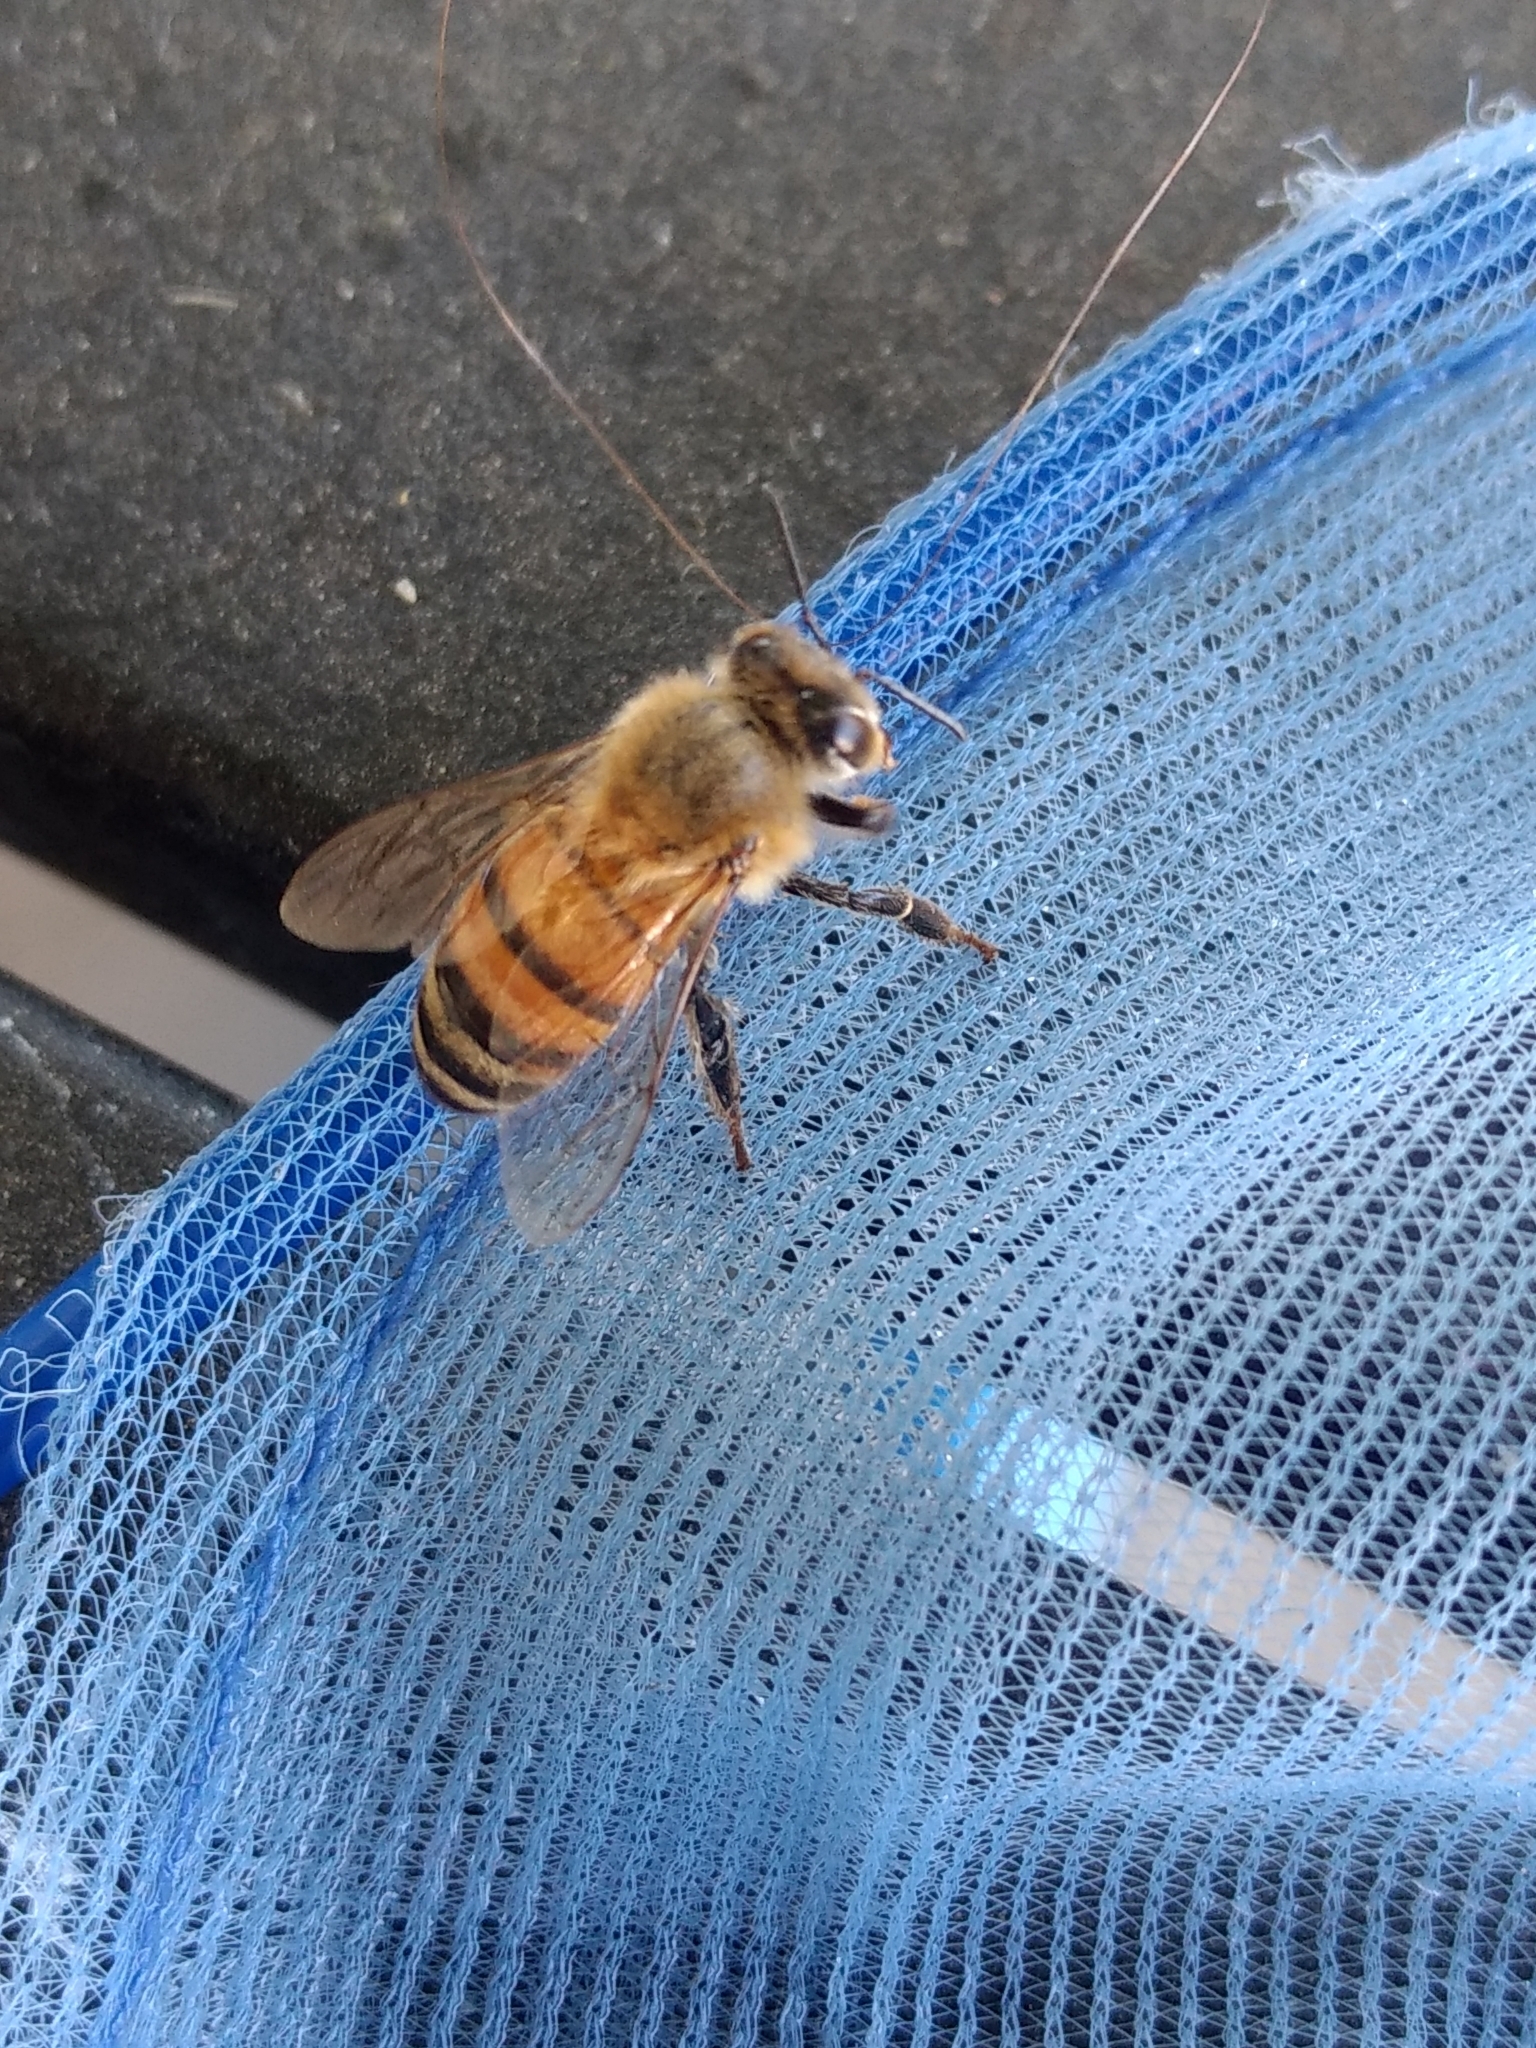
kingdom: Animalia
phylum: Arthropoda
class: Insecta
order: Hymenoptera
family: Apidae
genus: Apis
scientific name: Apis mellifera
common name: Honey bee
